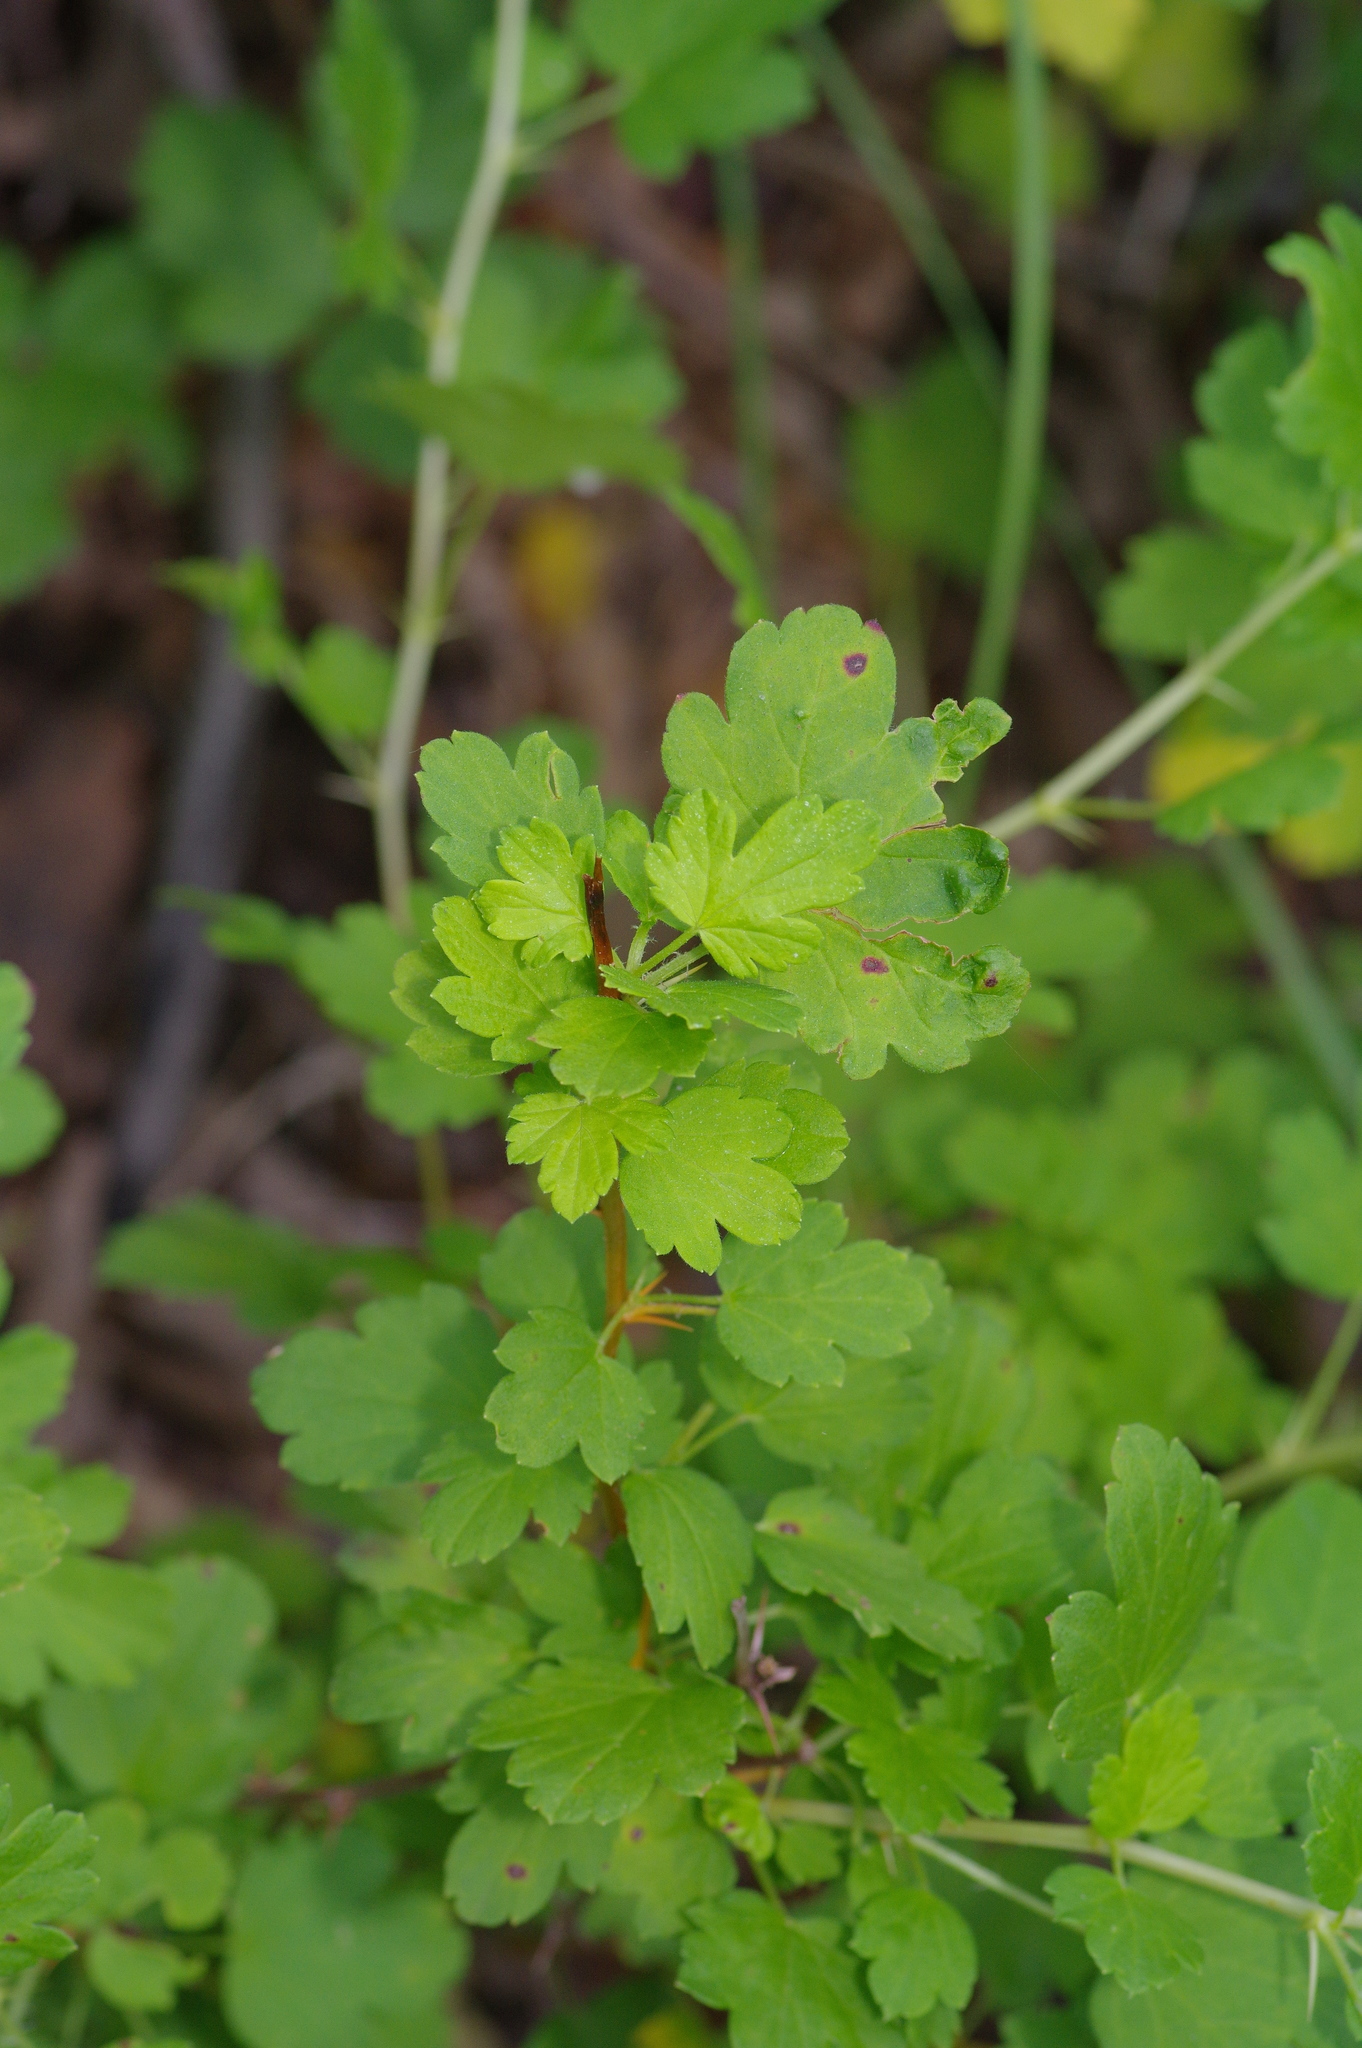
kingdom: Plantae
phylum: Tracheophyta
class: Magnoliopsida
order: Saxifragales
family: Grossulariaceae
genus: Ribes
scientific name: Ribes curvatum
